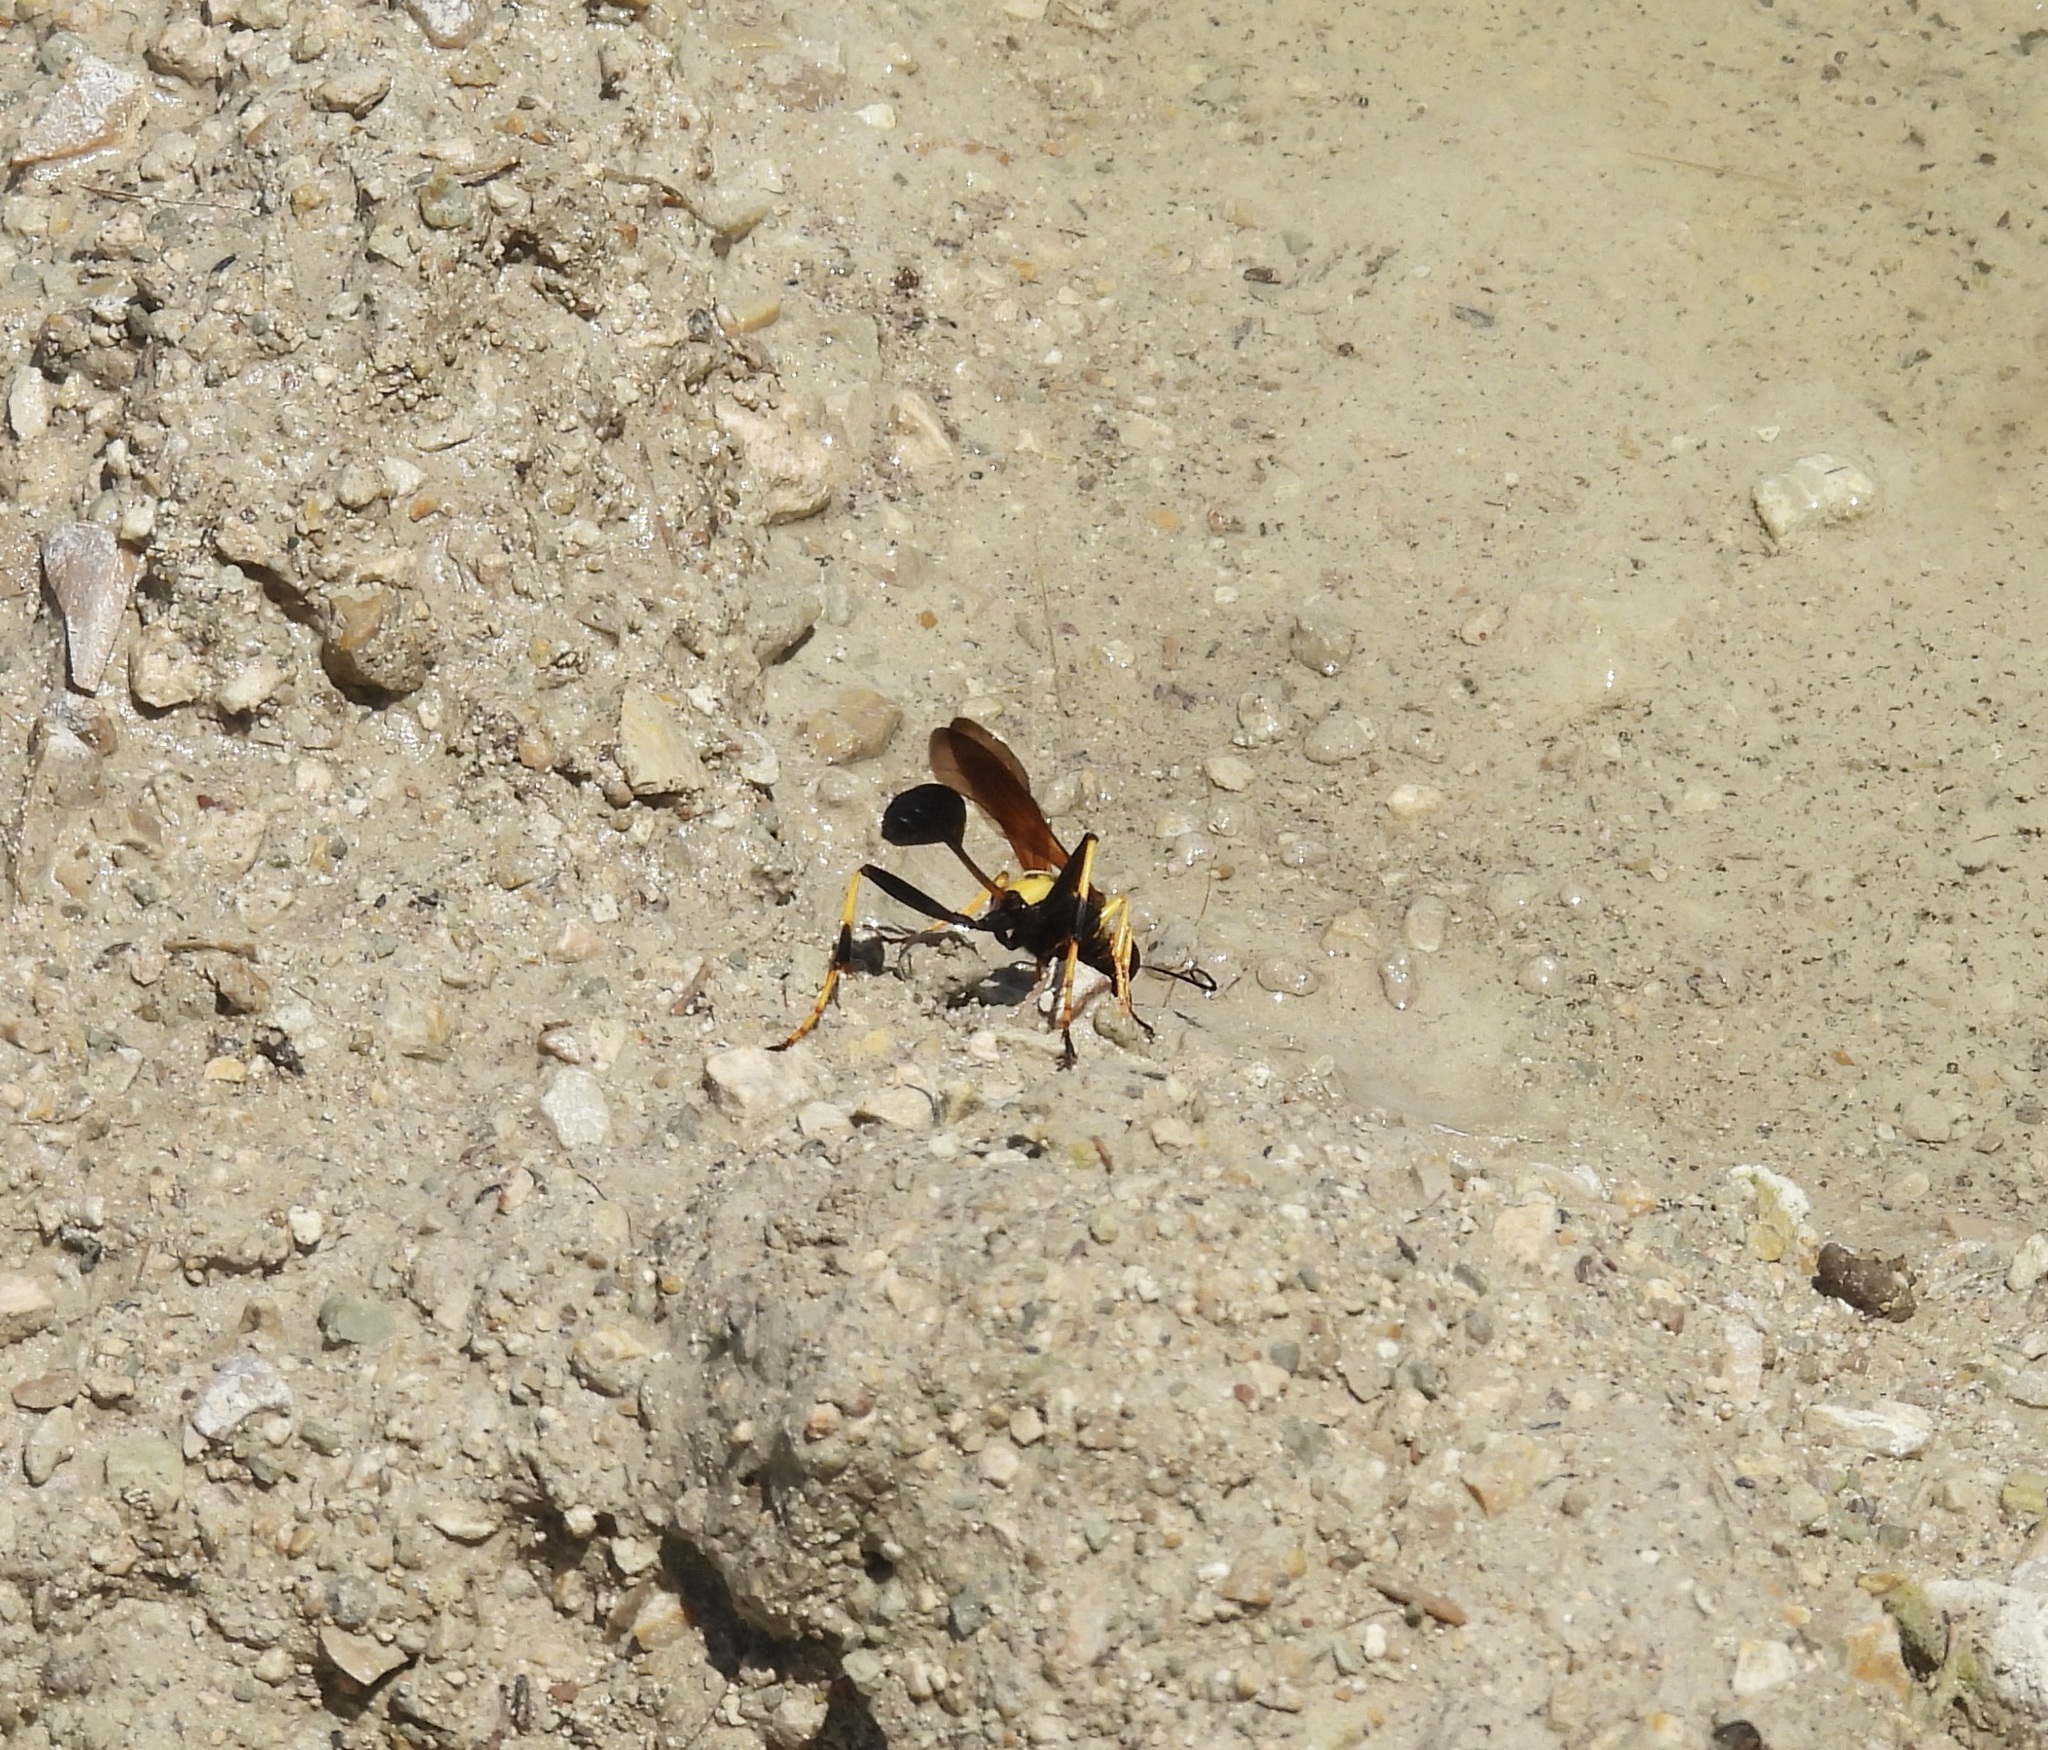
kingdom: Animalia
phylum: Arthropoda
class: Insecta
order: Hymenoptera
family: Sphecidae
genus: Sceliphron
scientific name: Sceliphron caementarium
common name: Mud dauber
